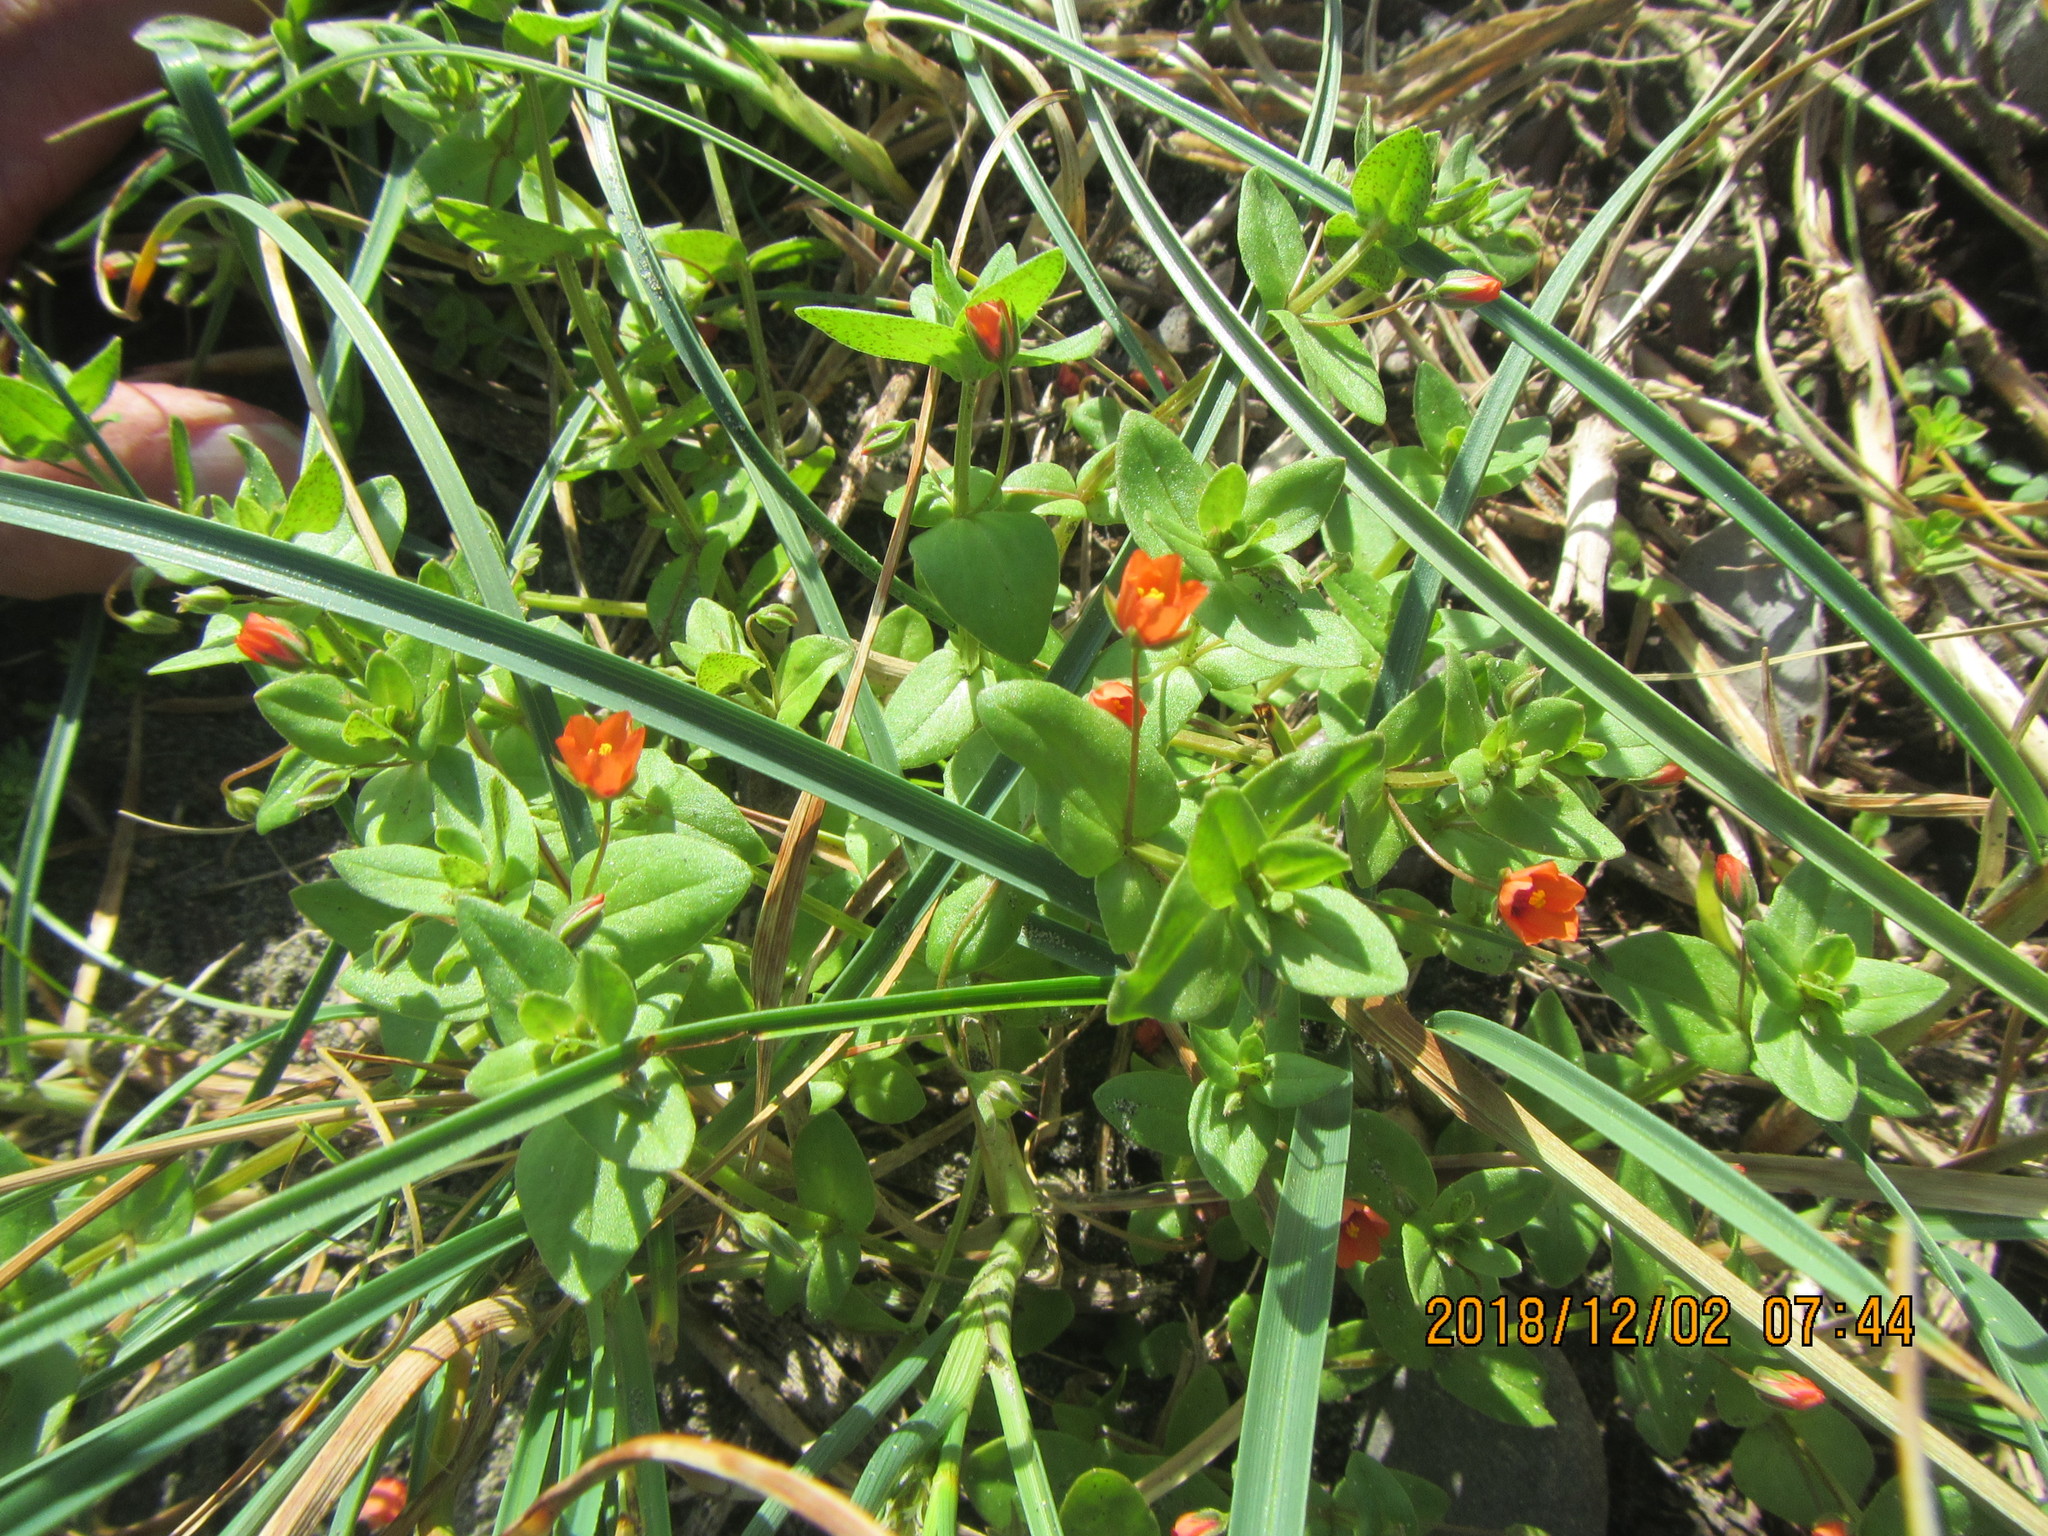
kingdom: Plantae
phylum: Tracheophyta
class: Magnoliopsida
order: Ericales
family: Primulaceae
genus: Lysimachia
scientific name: Lysimachia arvensis
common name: Scarlet pimpernel
